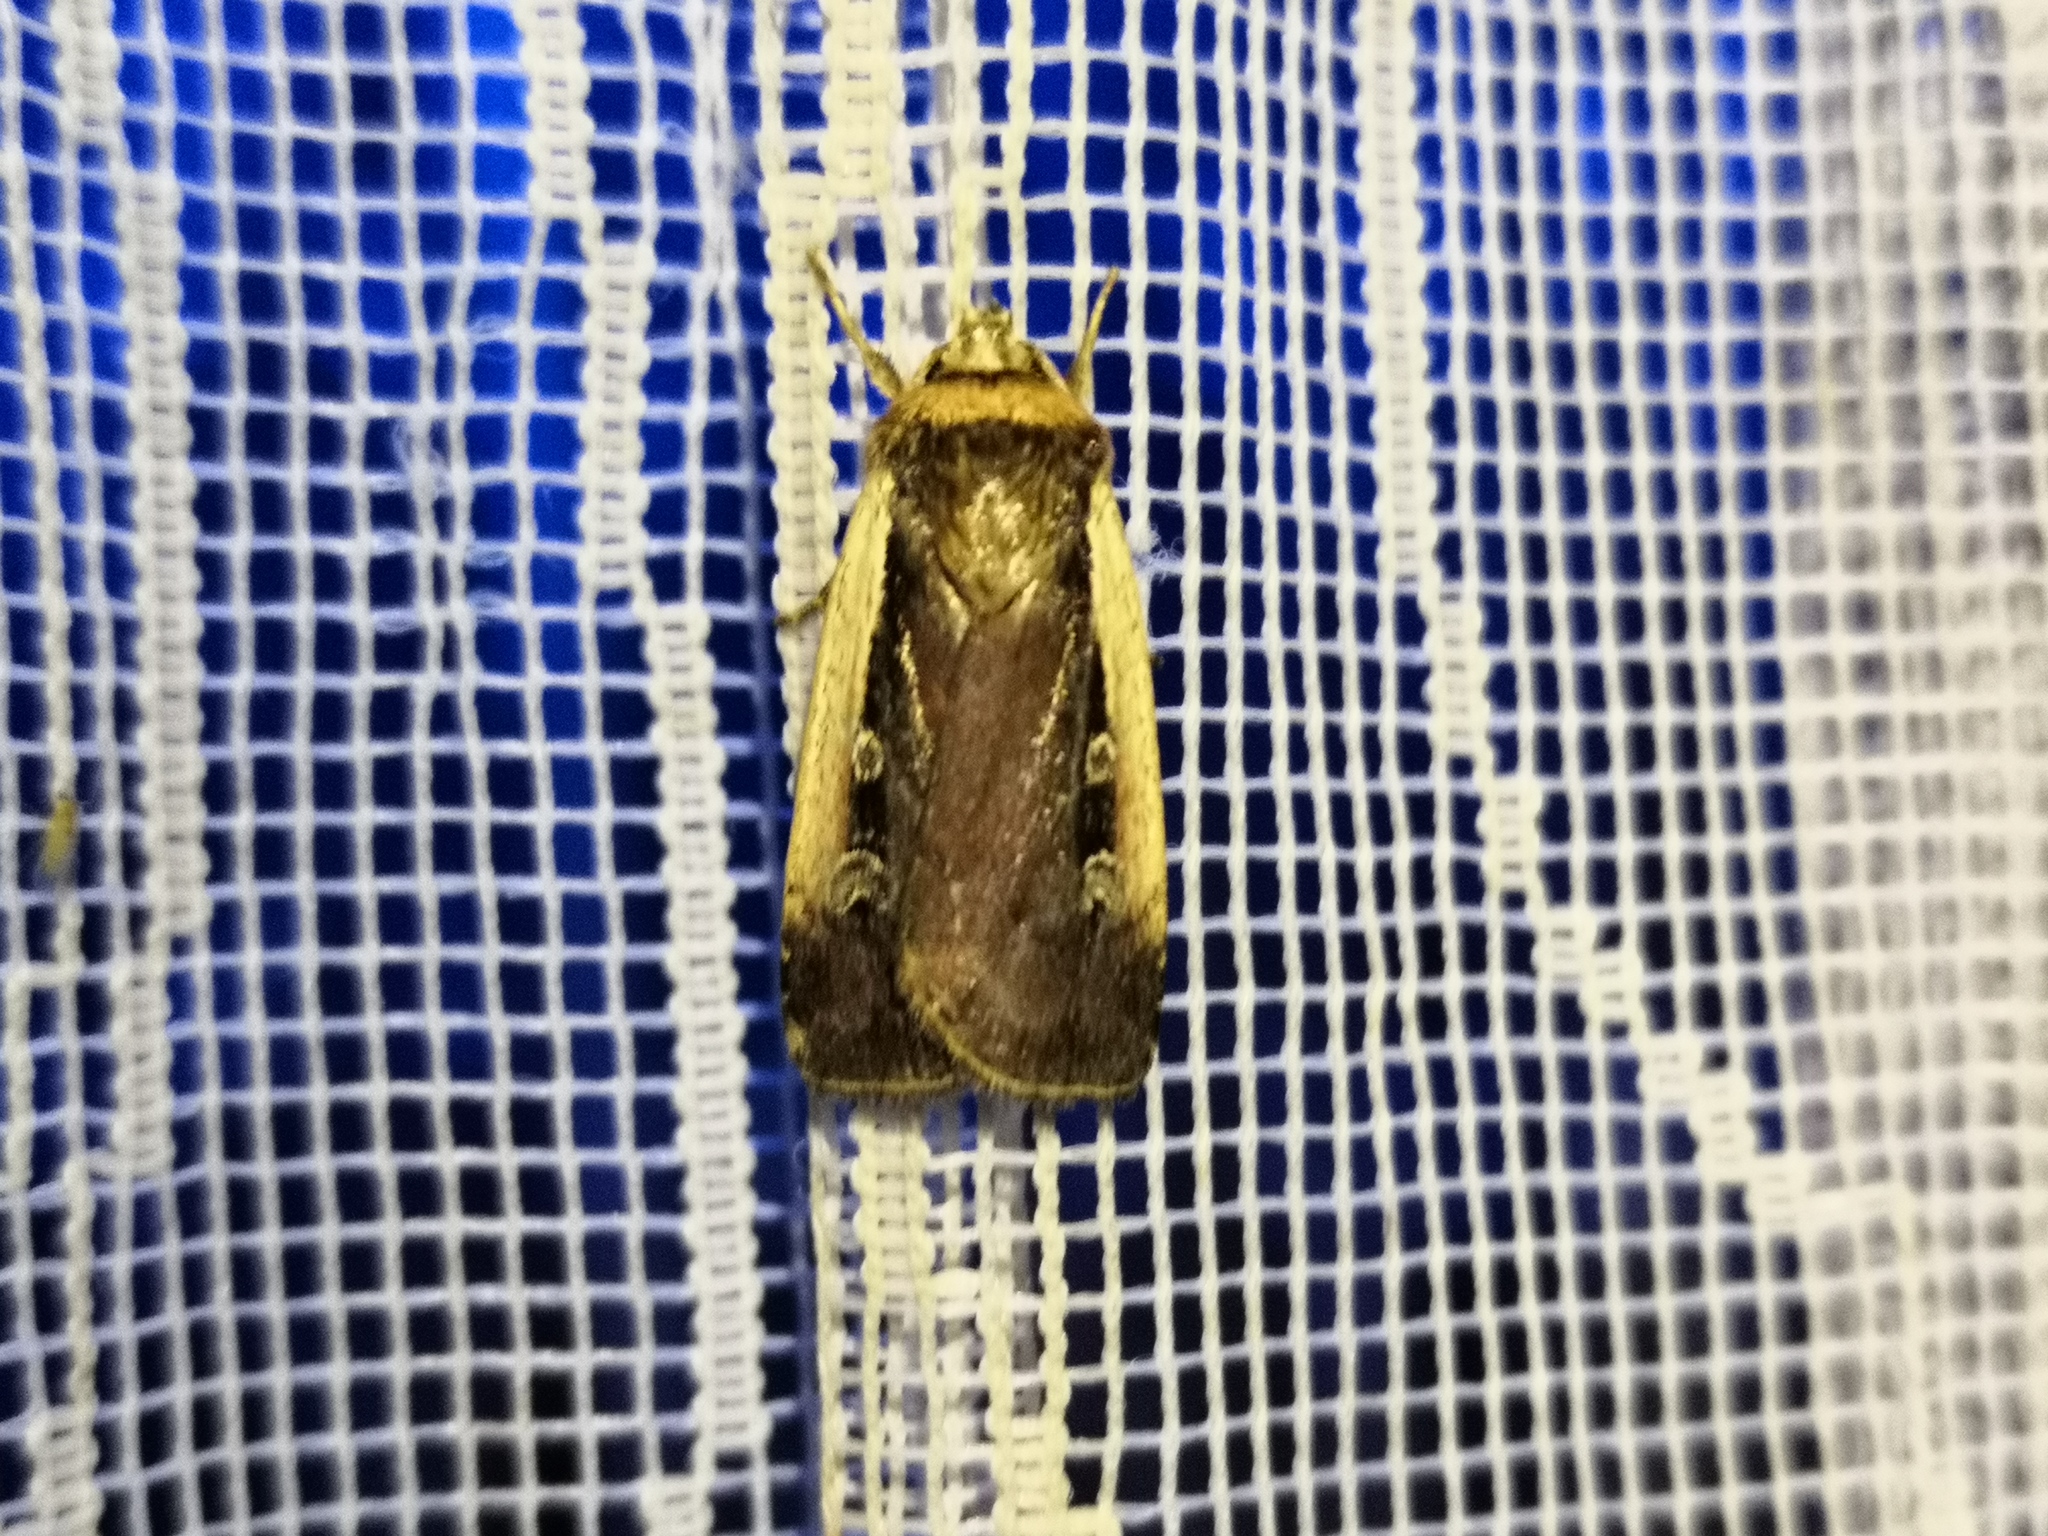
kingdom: Animalia
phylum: Arthropoda
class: Insecta
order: Lepidoptera
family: Noctuidae
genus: Ochropleura
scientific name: Ochropleura plecta
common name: Flame shoulder
